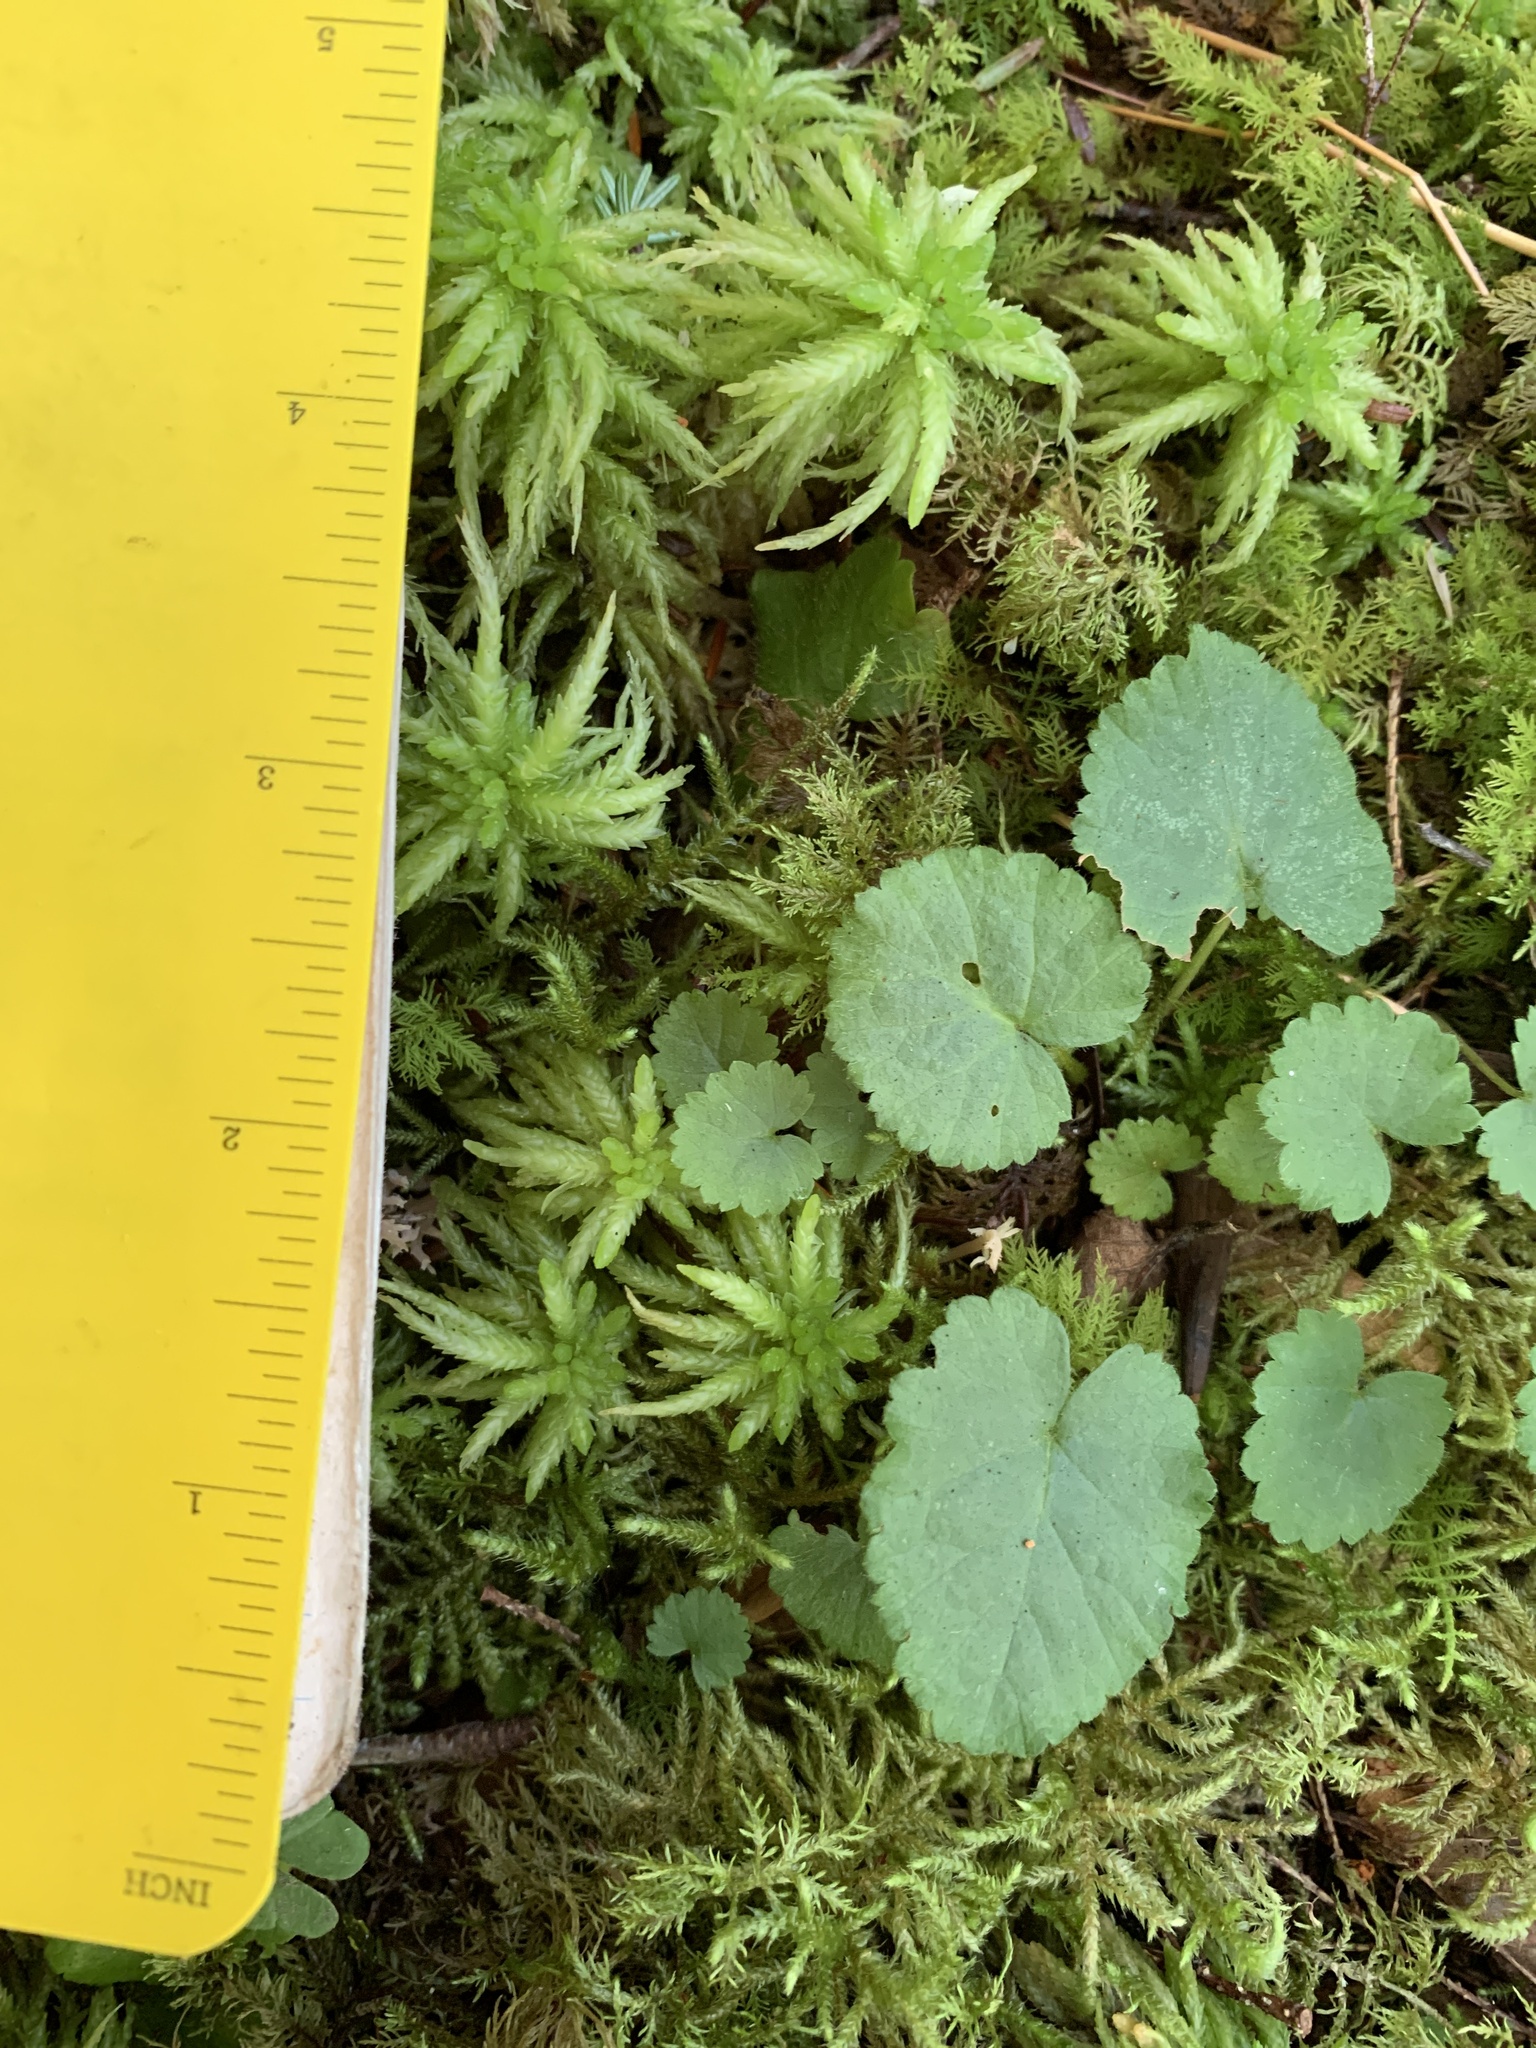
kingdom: Plantae
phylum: Tracheophyta
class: Magnoliopsida
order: Rosales
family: Rosaceae
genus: Dalibarda
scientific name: Dalibarda repens
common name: Dewdrop
